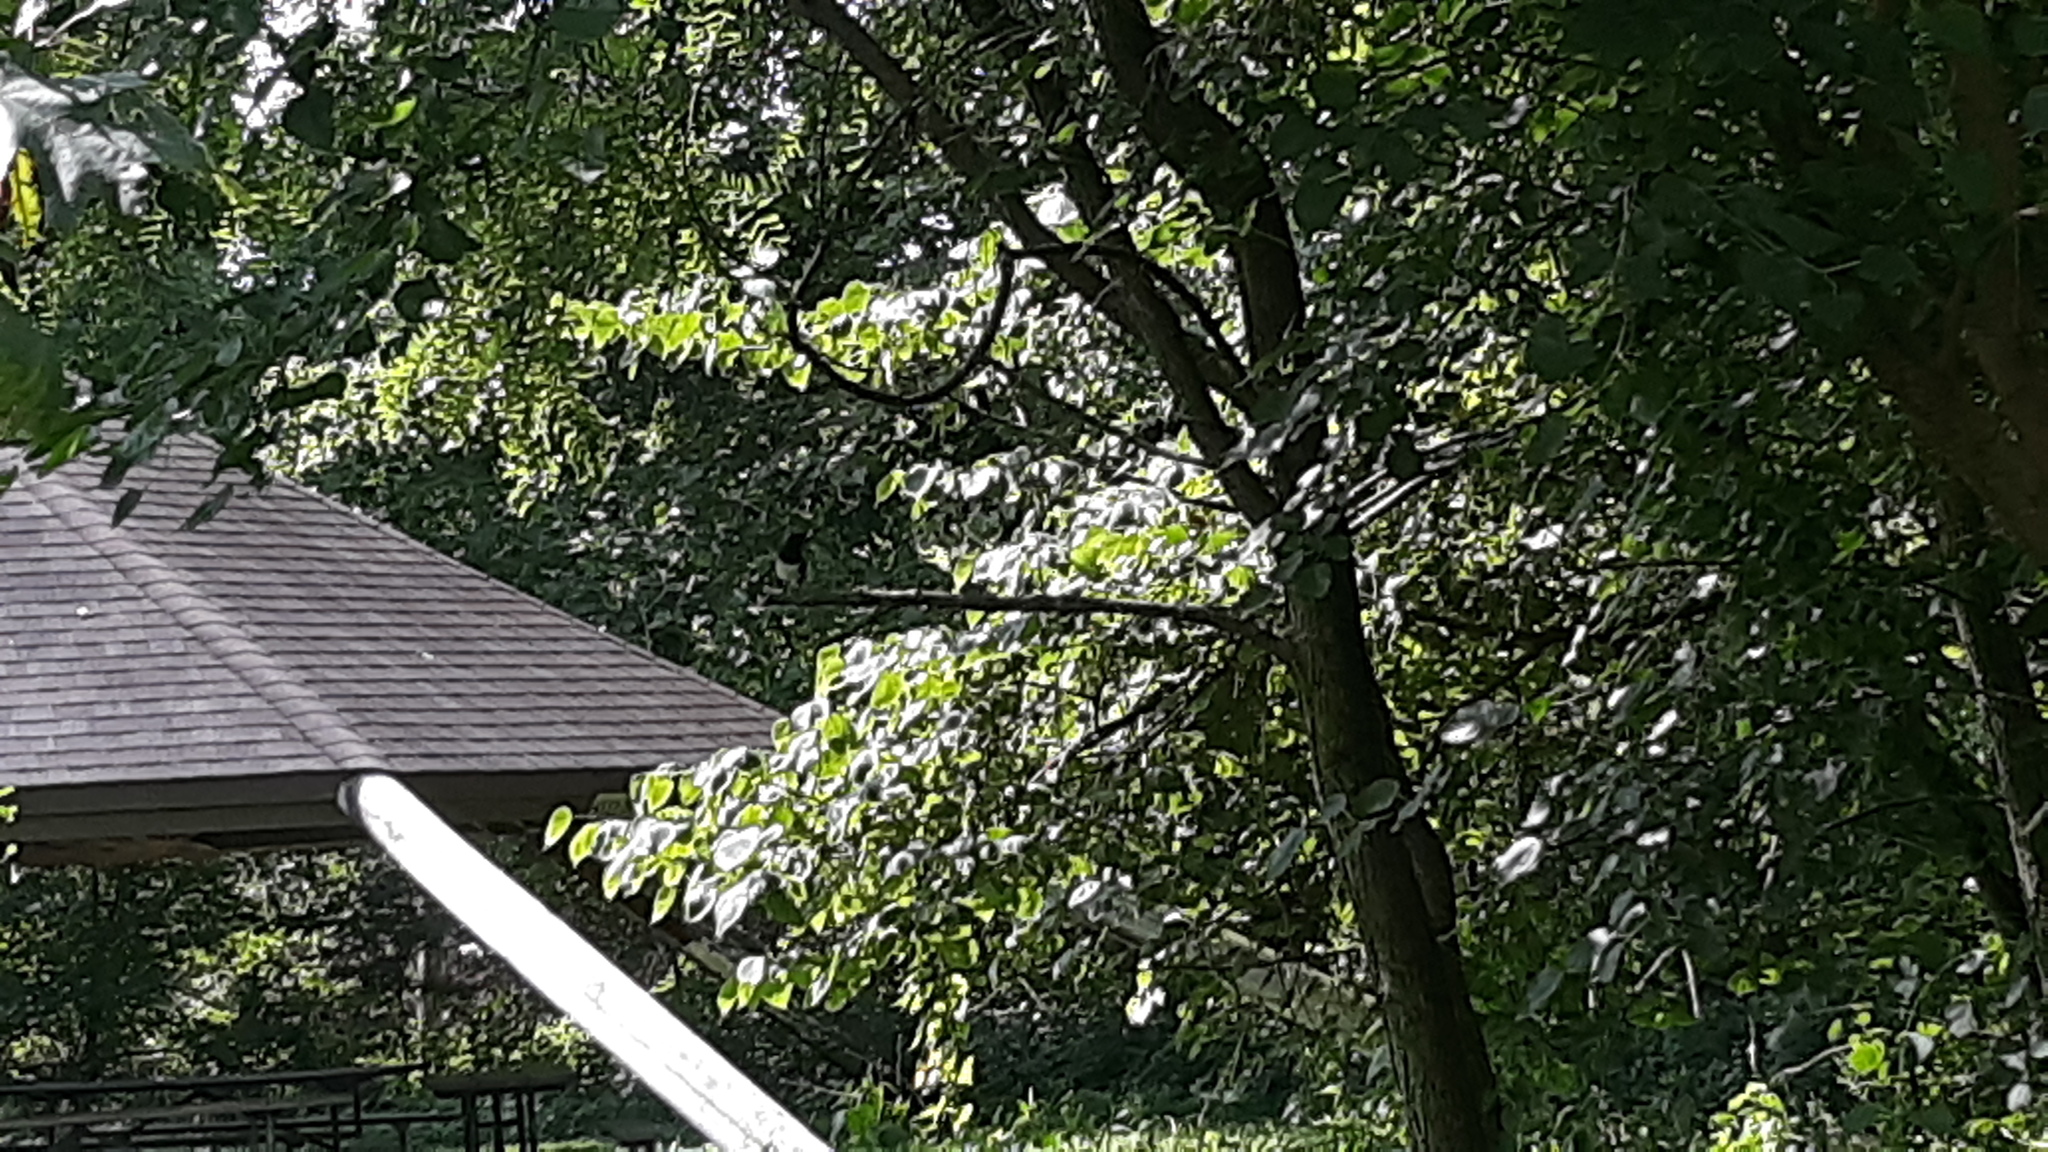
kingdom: Animalia
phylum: Chordata
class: Aves
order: Passeriformes
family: Passerellidae
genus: Pipilo
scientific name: Pipilo erythrophthalmus
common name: Eastern towhee
